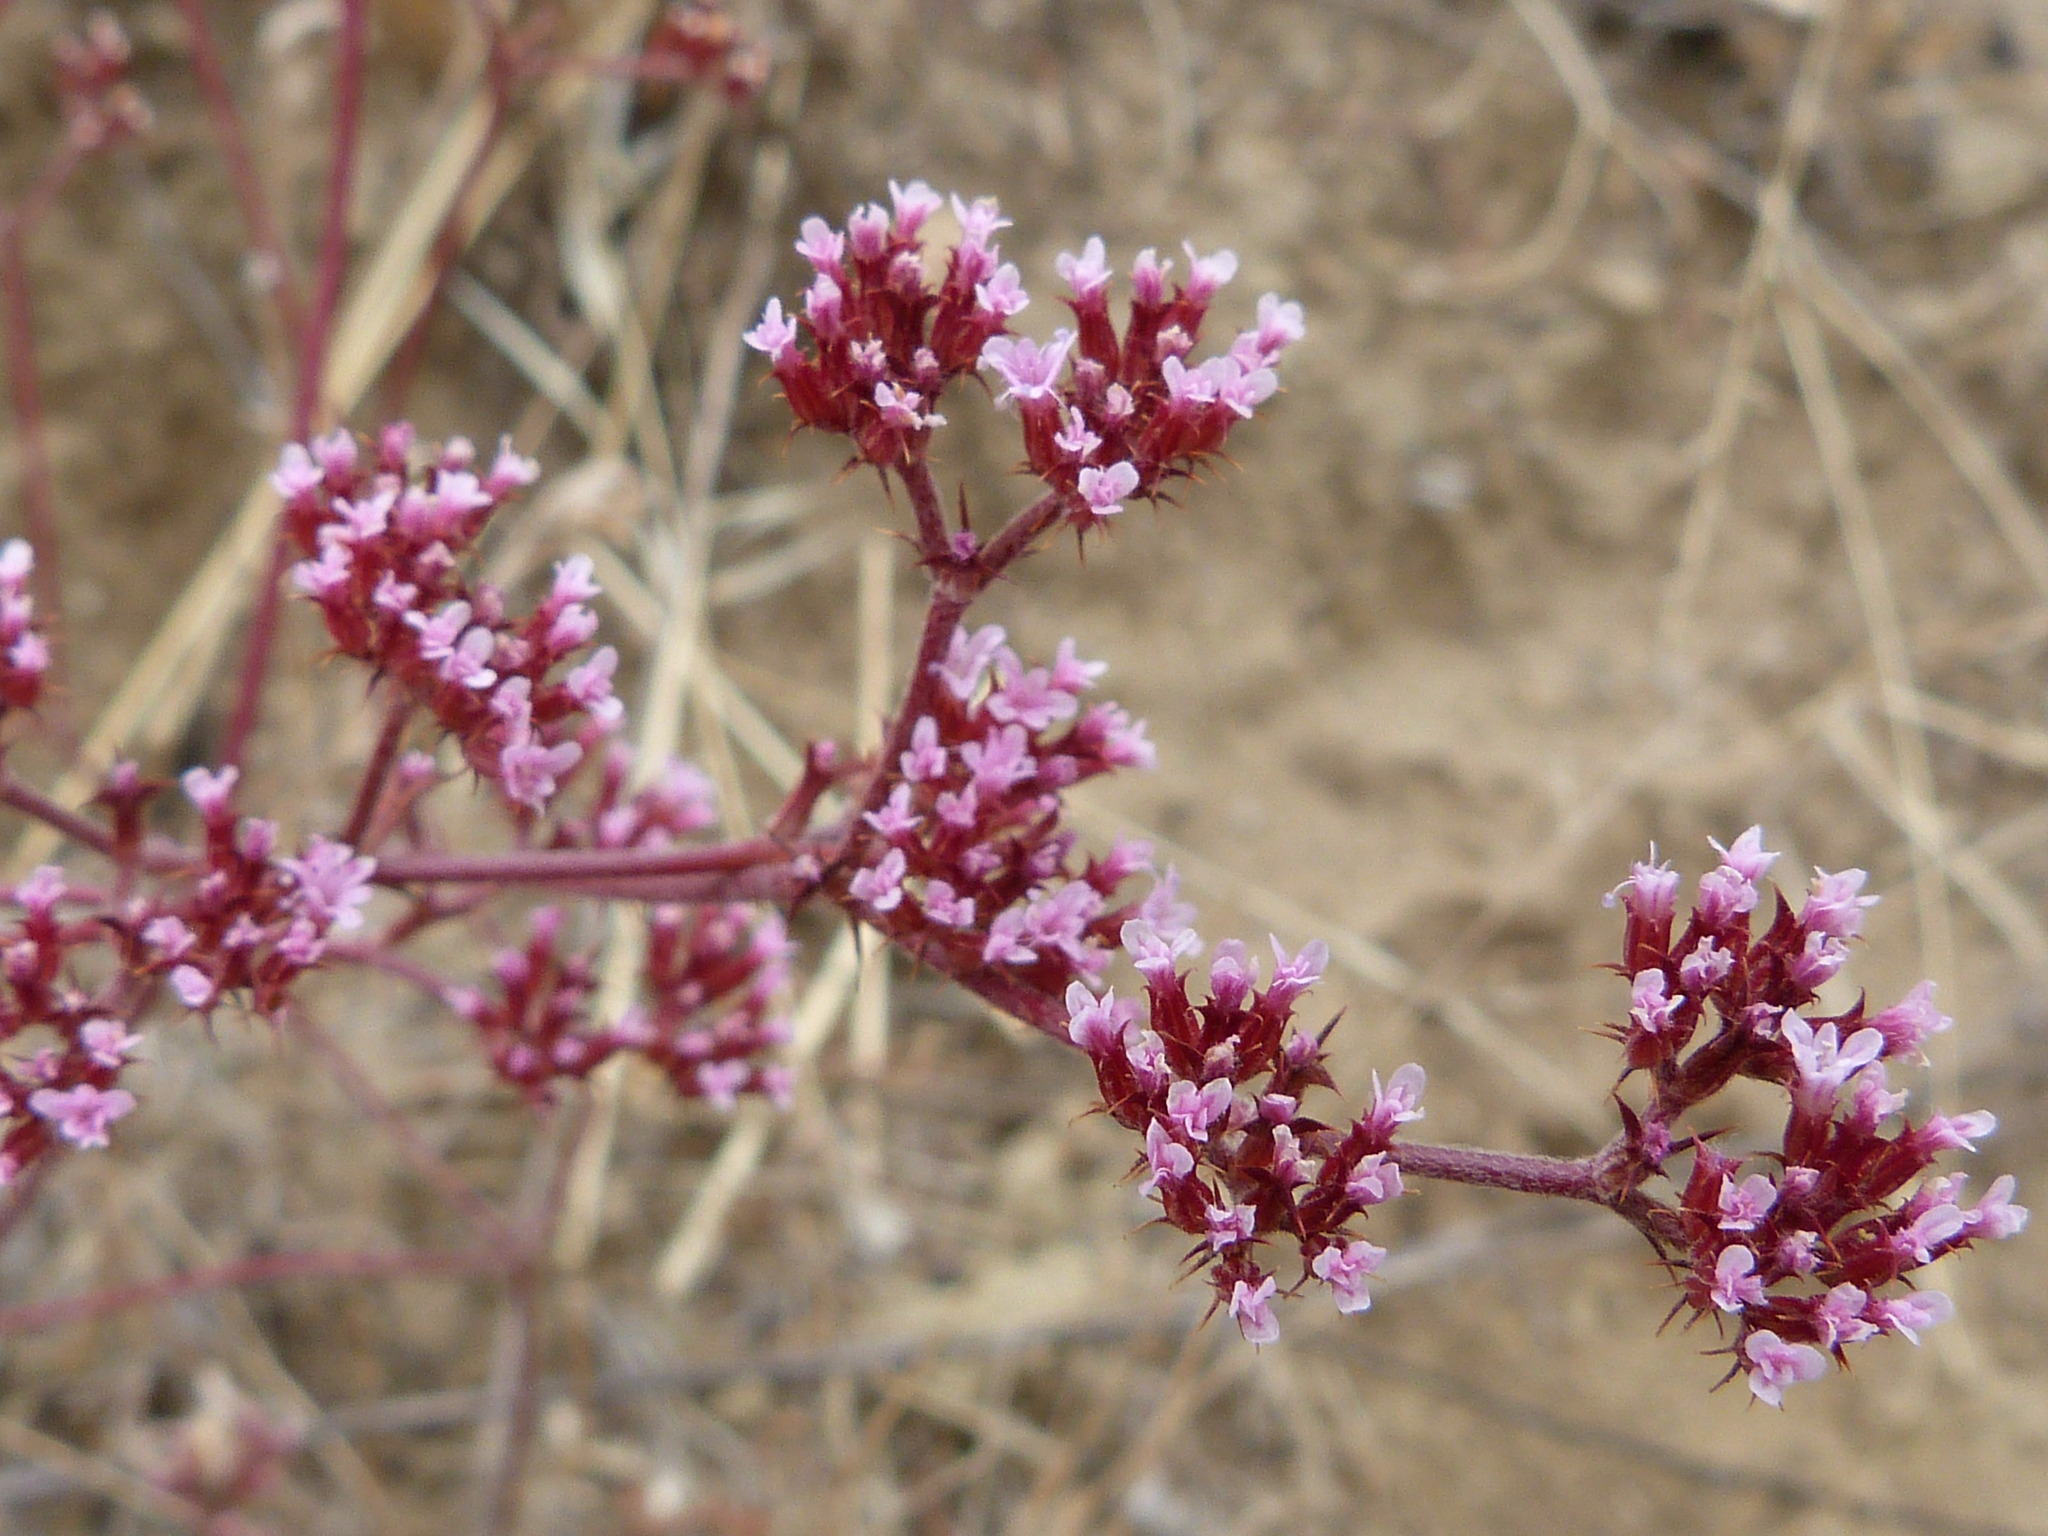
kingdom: Plantae
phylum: Tracheophyta
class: Magnoliopsida
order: Caryophyllales
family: Polygonaceae
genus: Chorizanthe
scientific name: Chorizanthe staticoides
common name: Turkish rugging
